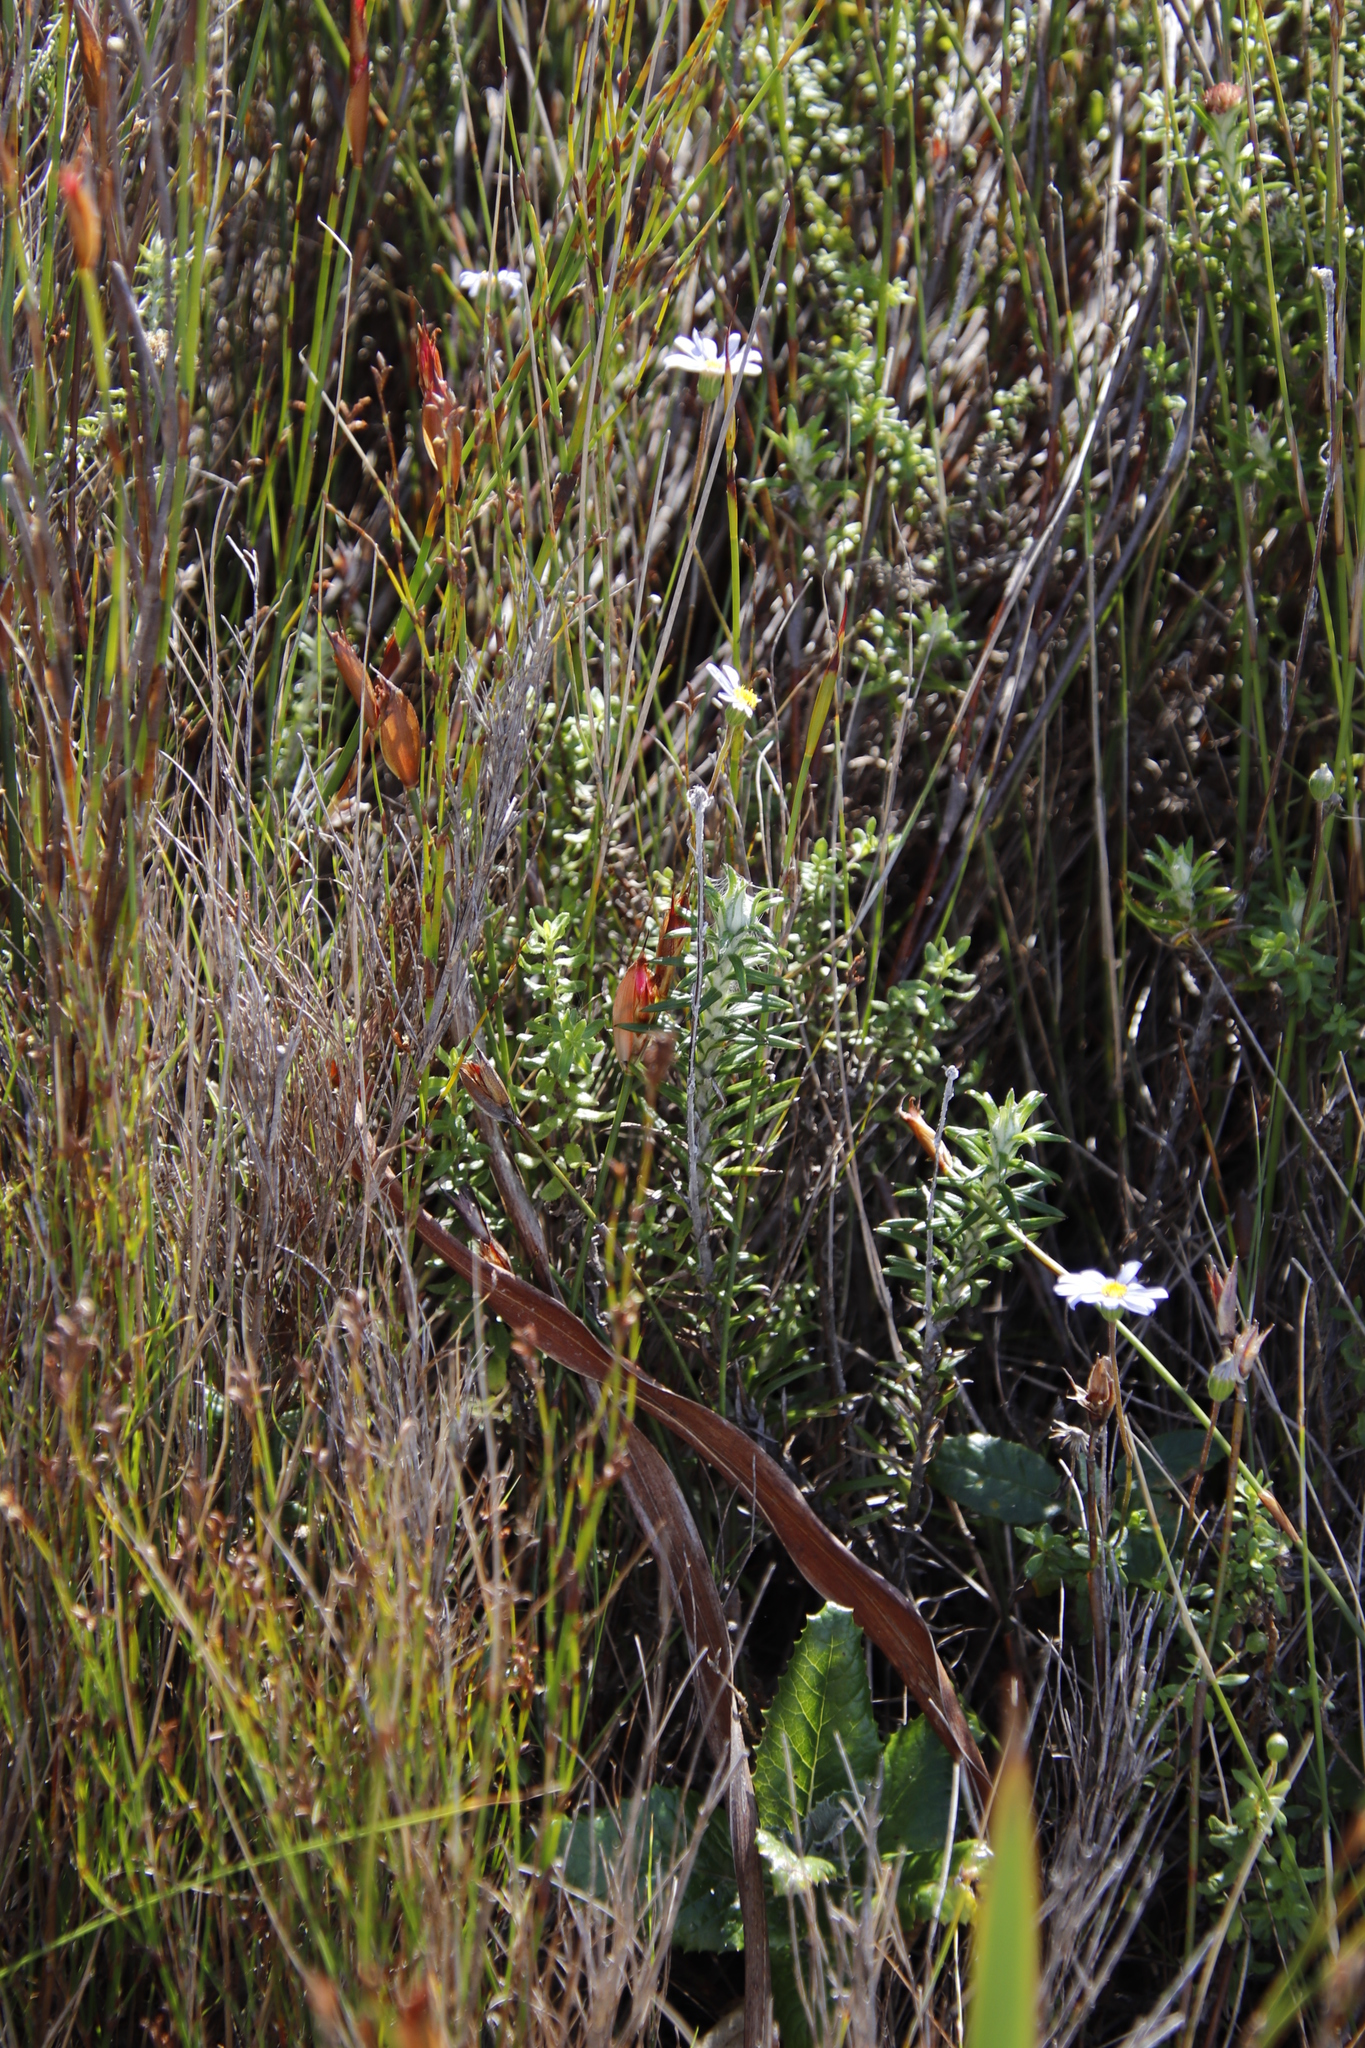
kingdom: Plantae
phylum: Tracheophyta
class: Magnoliopsida
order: Asterales
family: Asteraceae
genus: Felicia
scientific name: Felicia aethiopica
